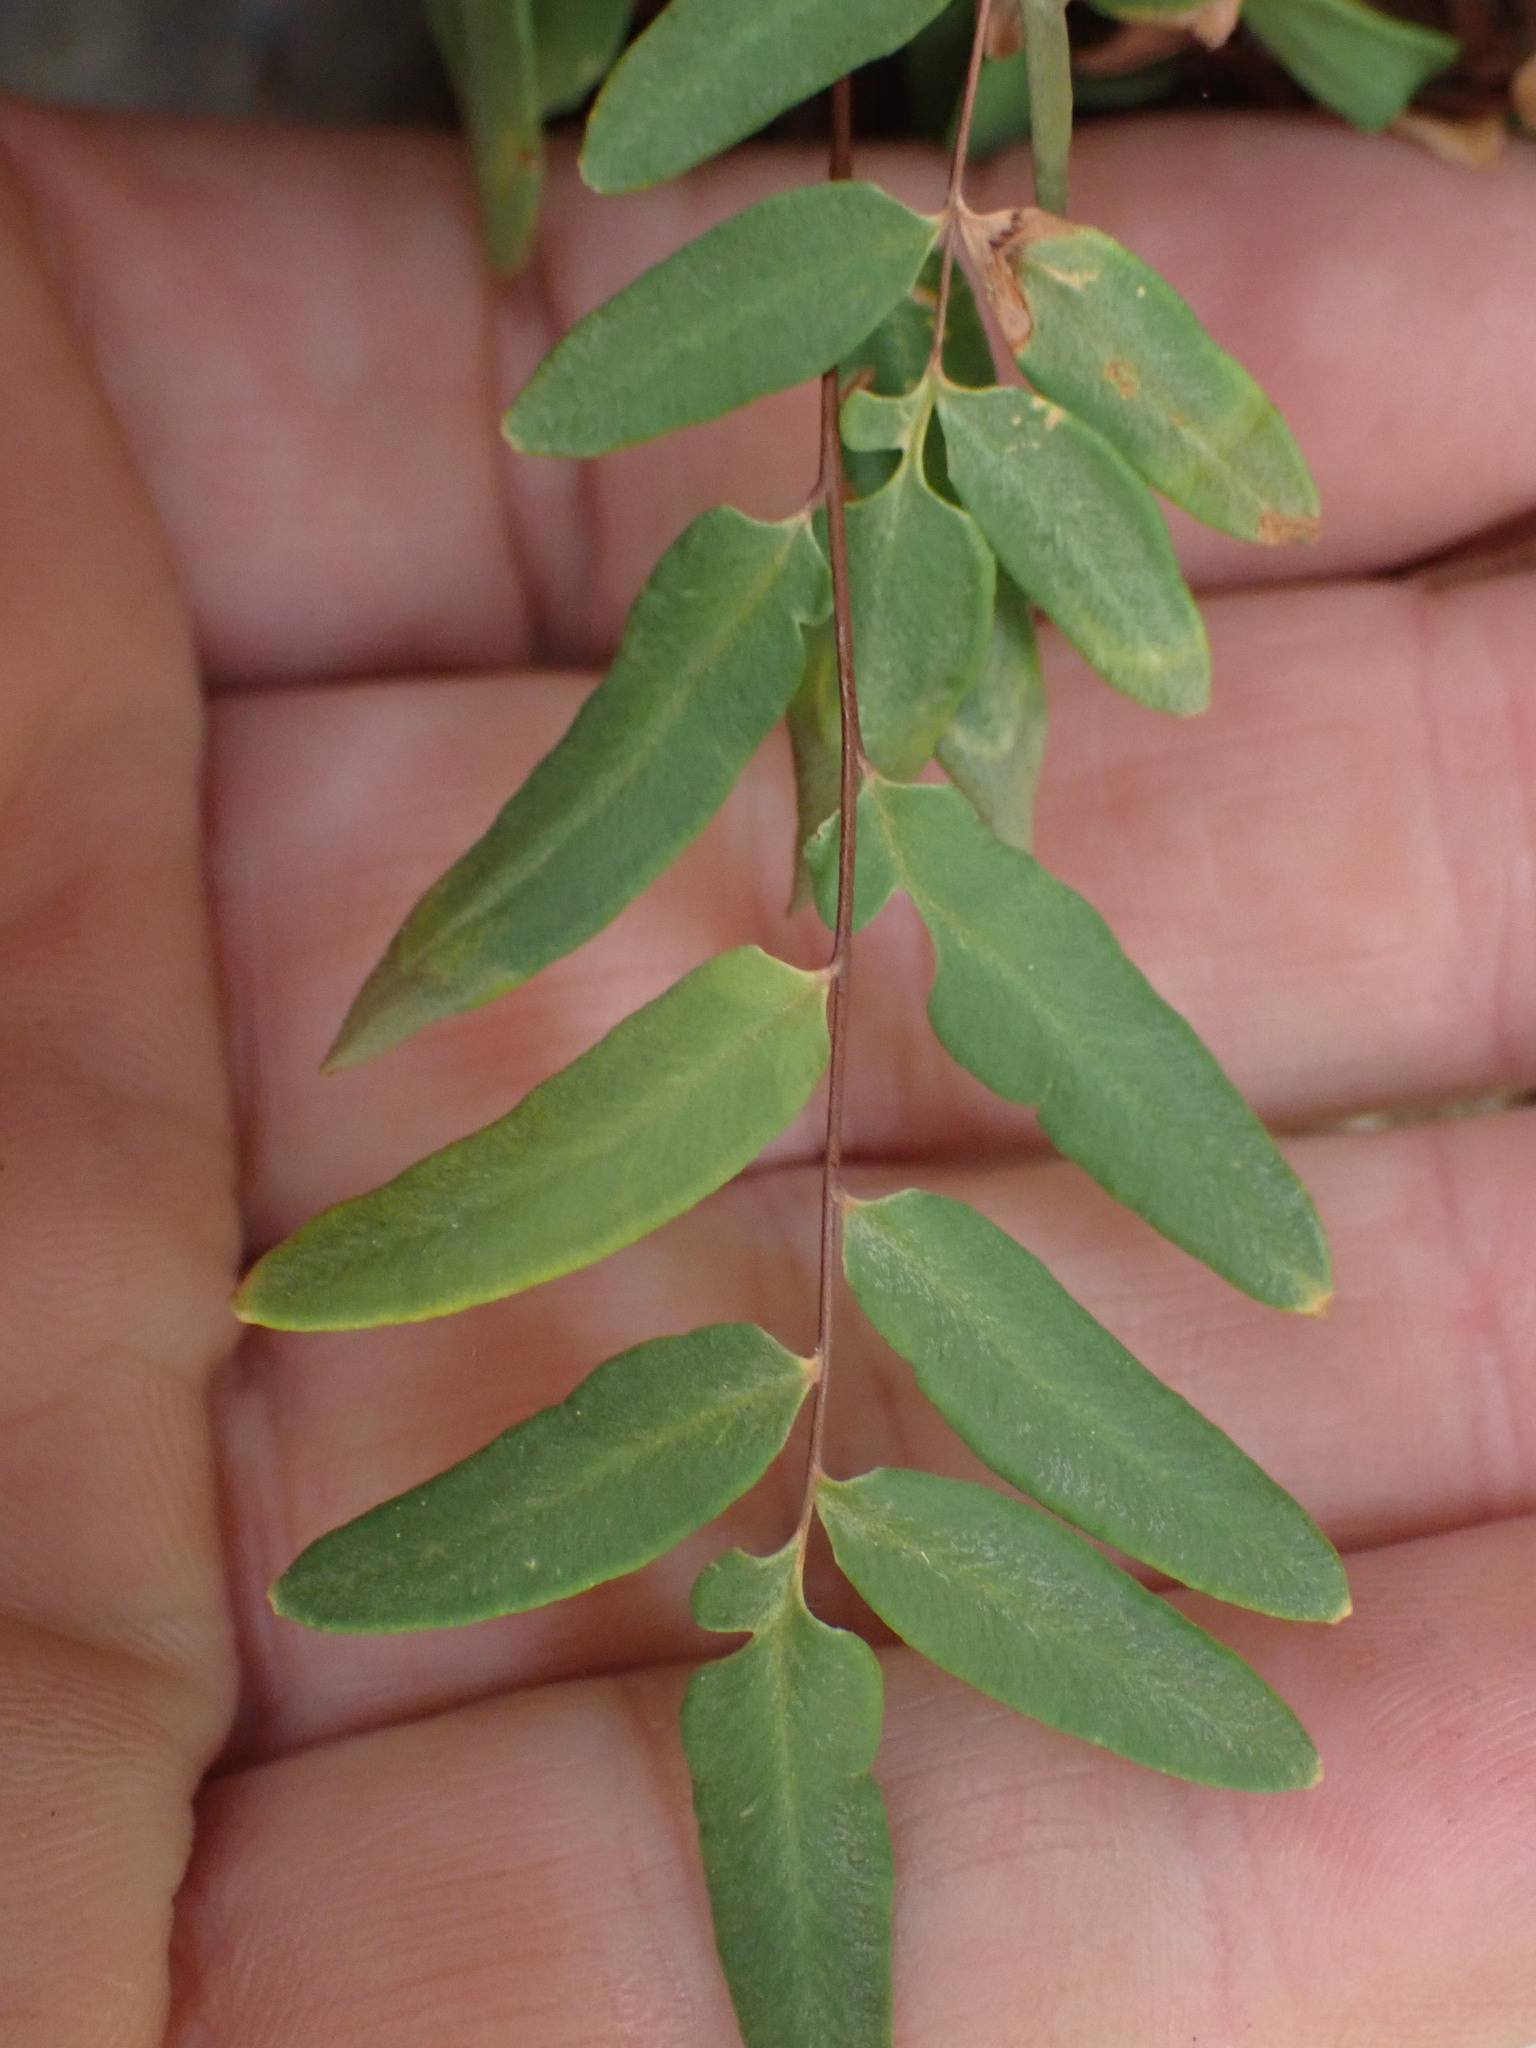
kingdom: Plantae
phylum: Tracheophyta
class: Polypodiopsida
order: Polypodiales
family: Pteridaceae
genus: Pellaea
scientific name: Pellaea glabella
